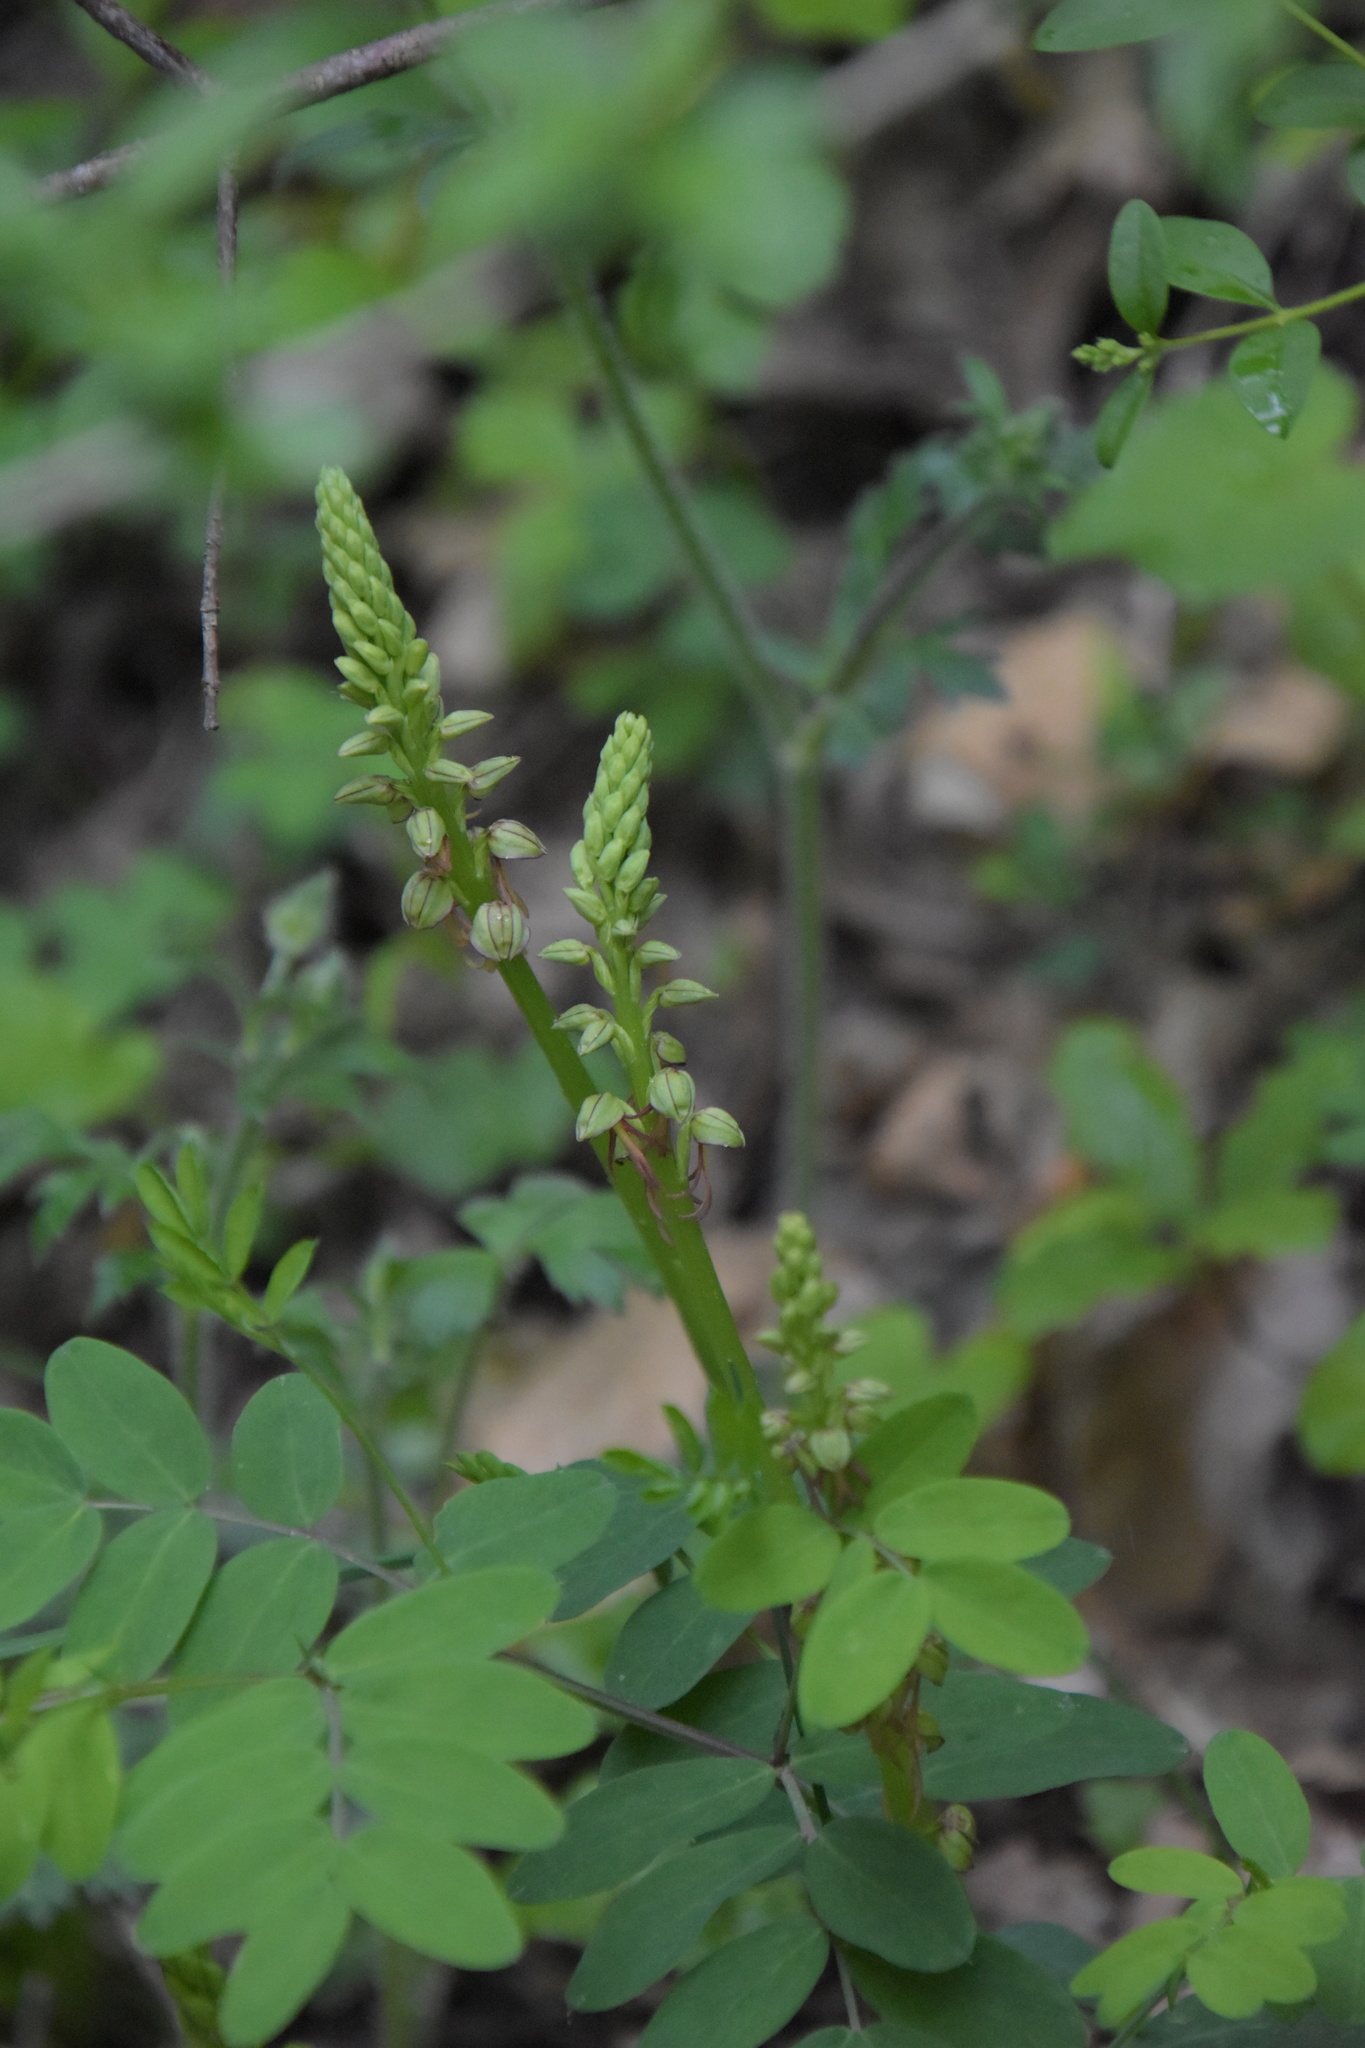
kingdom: Plantae
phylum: Tracheophyta
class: Liliopsida
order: Asparagales
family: Orchidaceae
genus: Orchis
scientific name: Orchis anthropophora
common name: Man orchid
